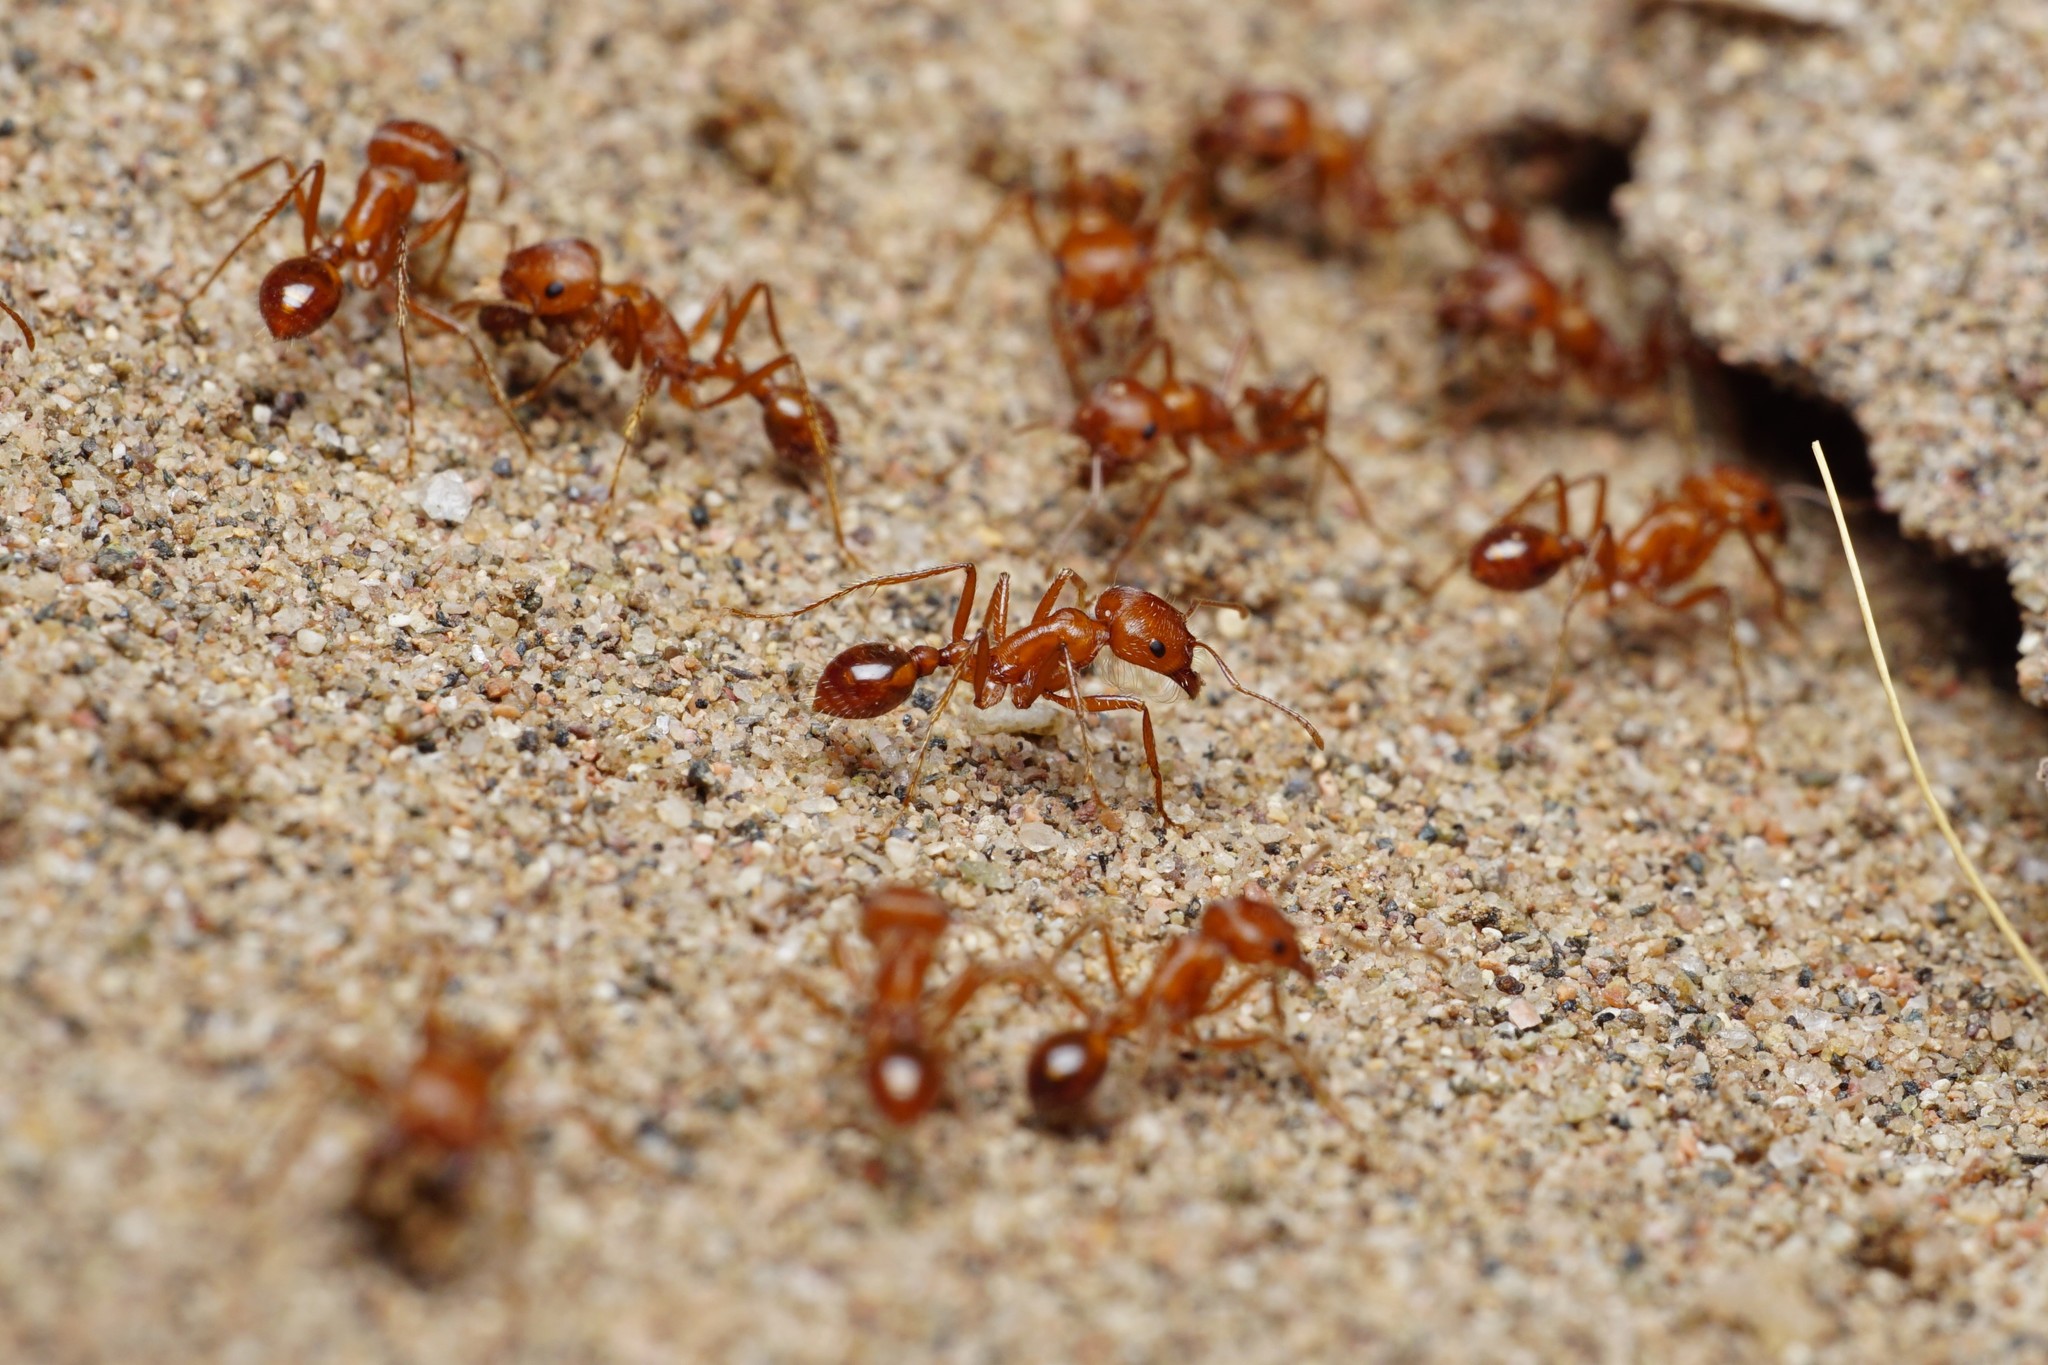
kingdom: Animalia
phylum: Arthropoda
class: Insecta
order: Hymenoptera
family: Formicidae
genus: Pogonomyrmex
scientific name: Pogonomyrmex californicus
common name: California harvester ant
